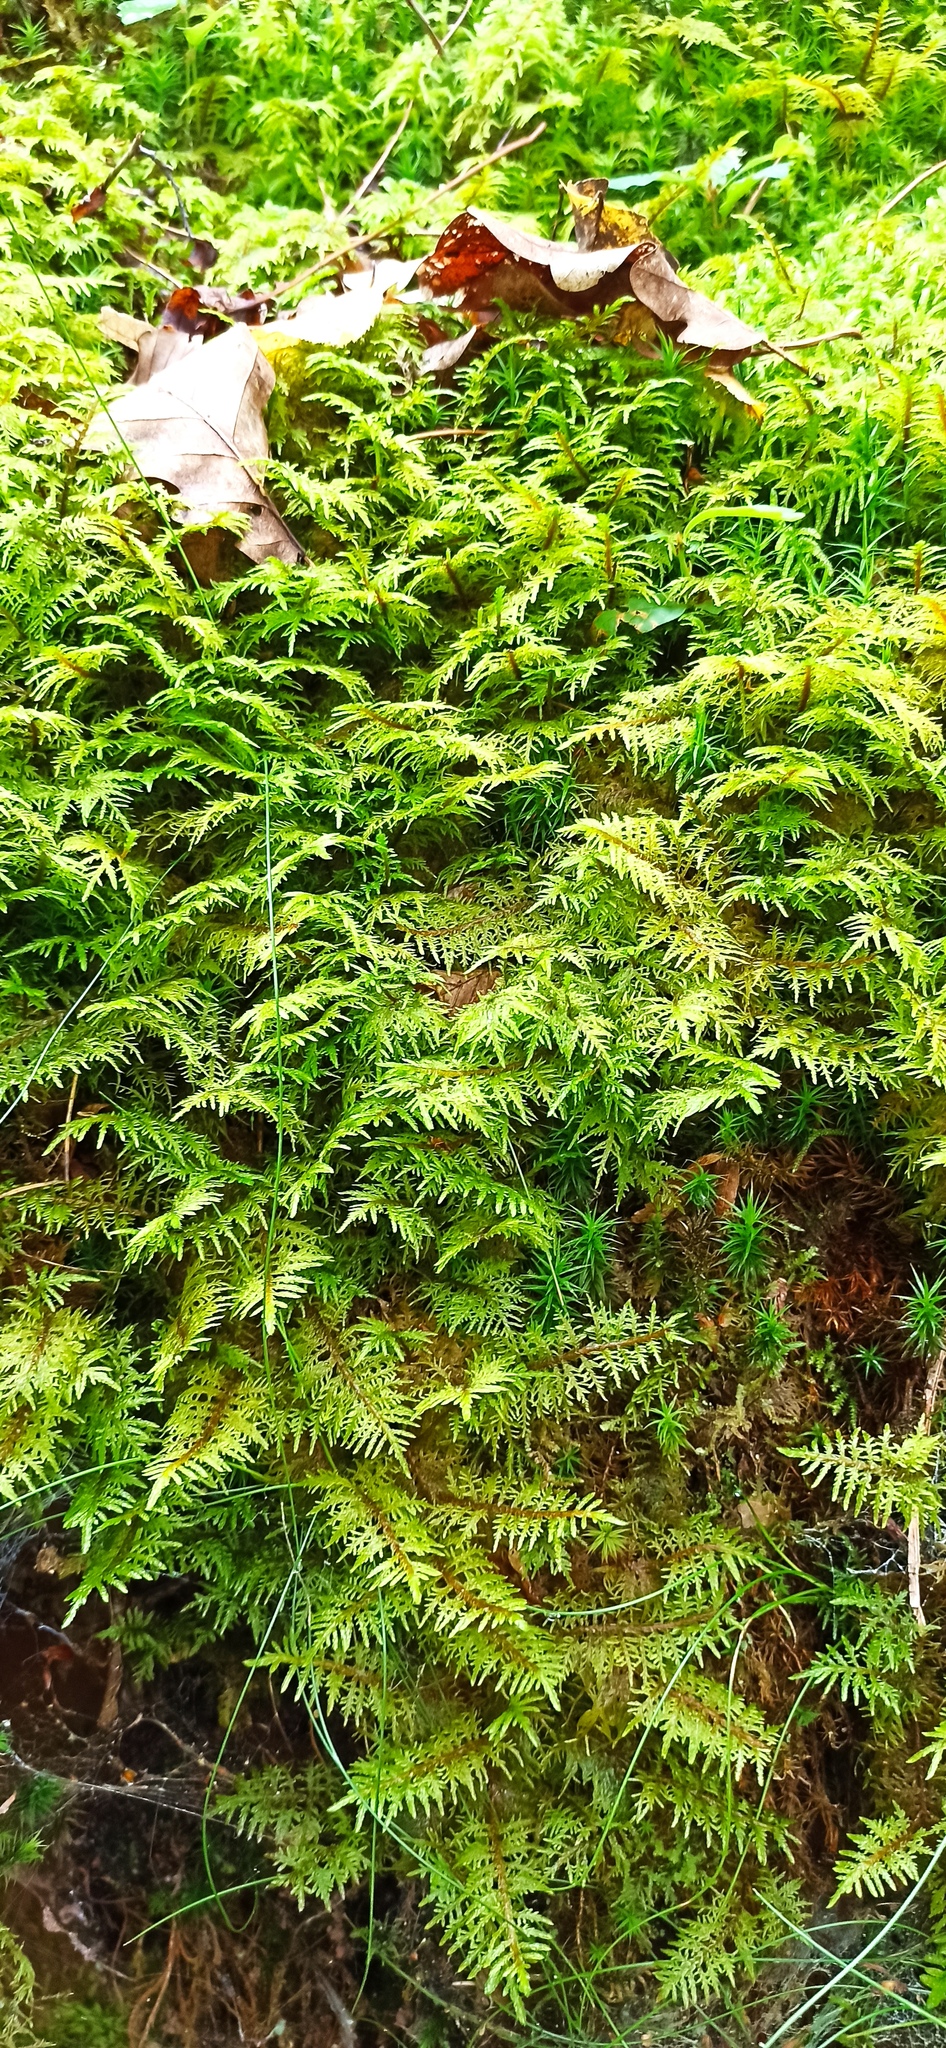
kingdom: Plantae
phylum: Bryophyta
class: Bryopsida
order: Hypnales
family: Hylocomiaceae
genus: Hylocomium
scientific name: Hylocomium splendens
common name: Stairstep moss
